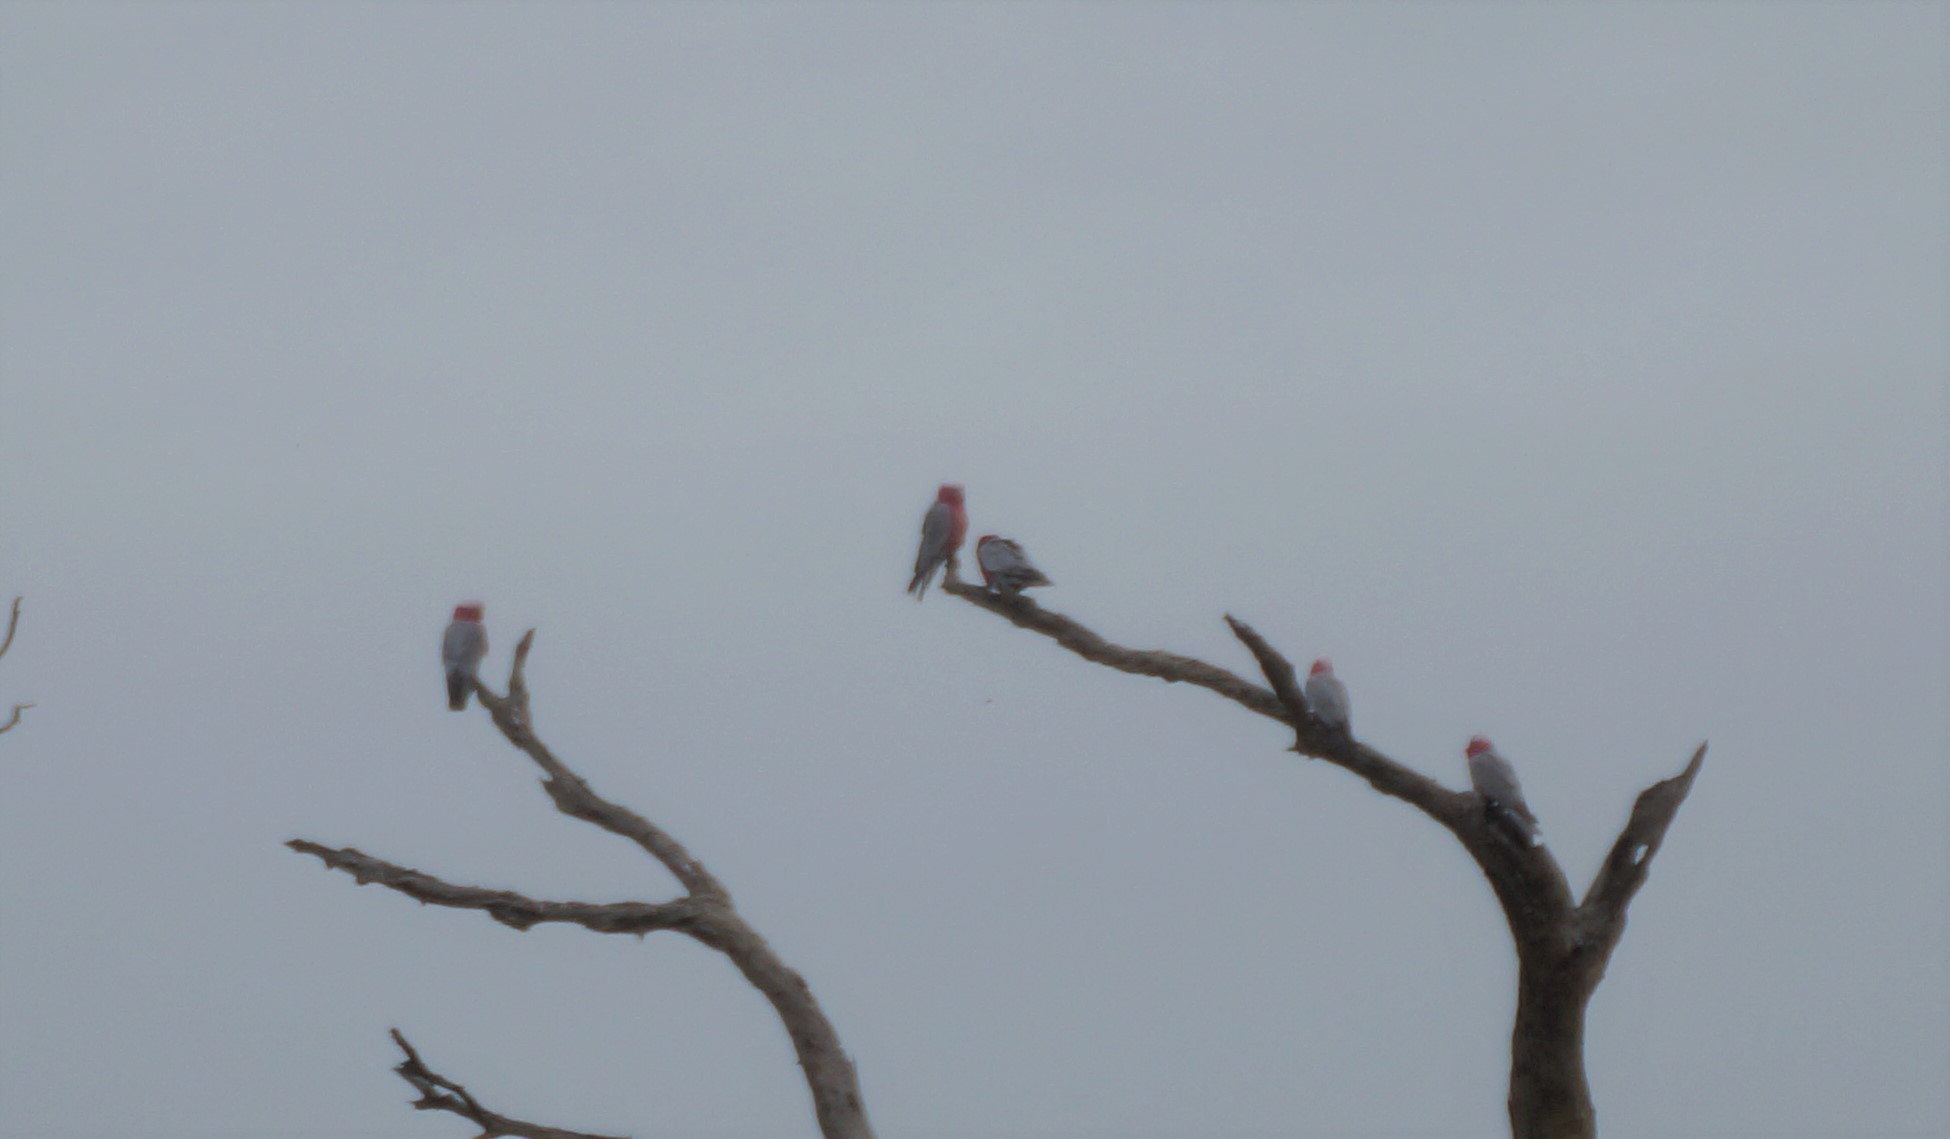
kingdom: Animalia
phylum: Chordata
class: Aves
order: Psittaciformes
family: Psittacidae
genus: Eolophus
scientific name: Eolophus roseicapilla
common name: Galah
